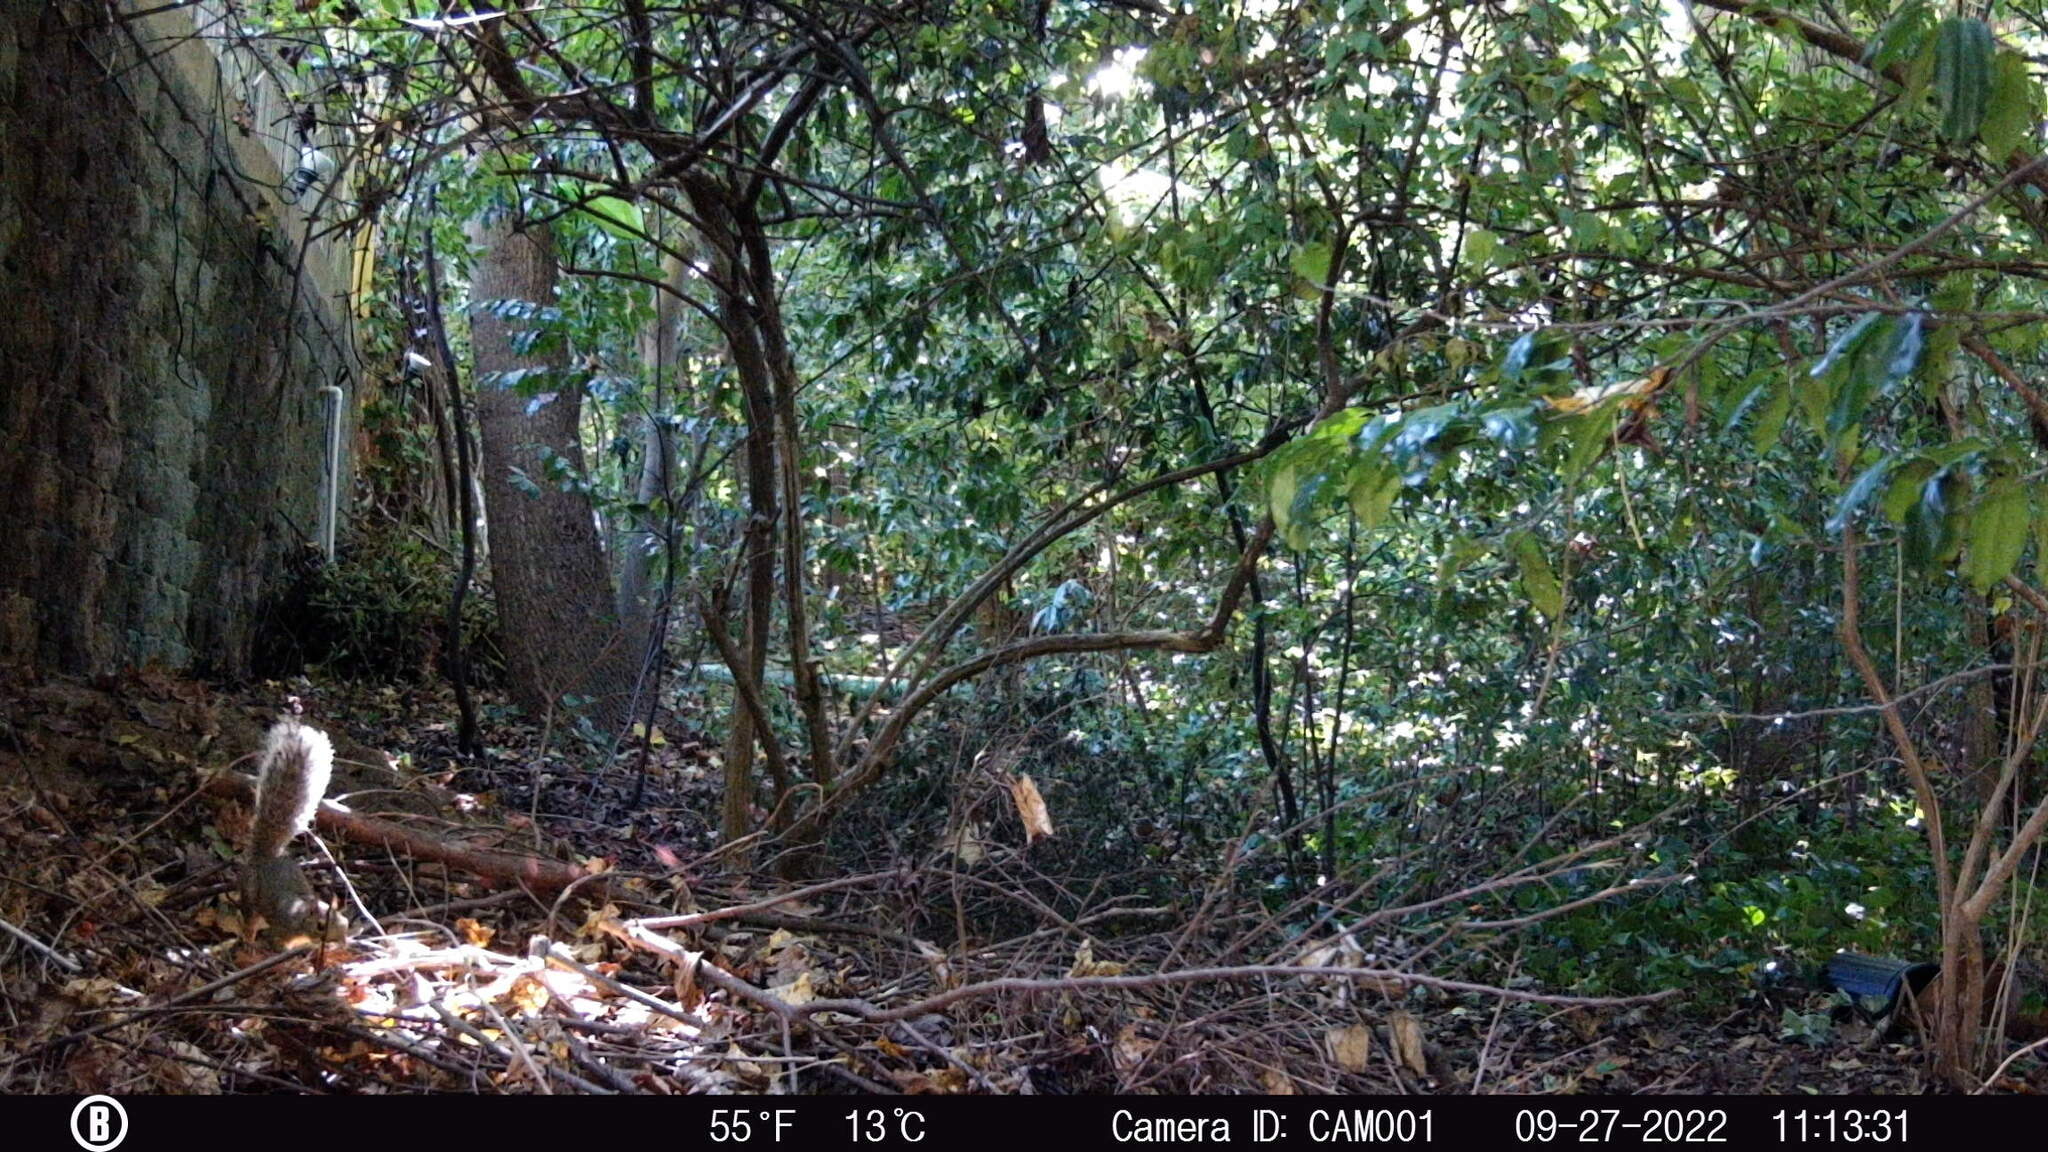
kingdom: Animalia
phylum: Chordata
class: Mammalia
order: Rodentia
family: Sciuridae
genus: Sciurus
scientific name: Sciurus carolinensis
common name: Eastern gray squirrel
